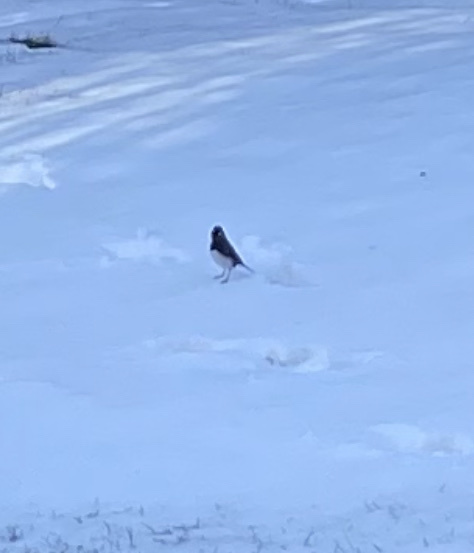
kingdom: Animalia
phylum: Chordata
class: Aves
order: Passeriformes
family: Passerellidae
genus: Junco
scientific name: Junco hyemalis
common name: Dark-eyed junco
